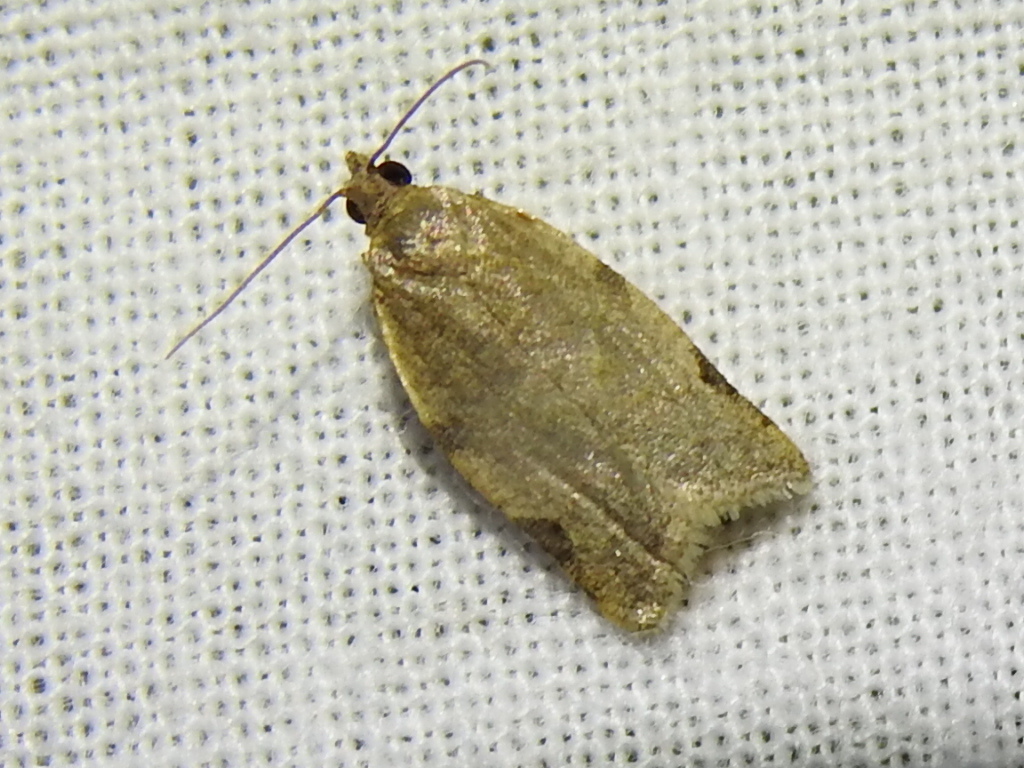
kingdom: Animalia
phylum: Arthropoda
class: Insecta
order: Lepidoptera
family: Tortricidae
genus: Clepsis
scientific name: Clepsis virescana
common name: Greenish apple moth
